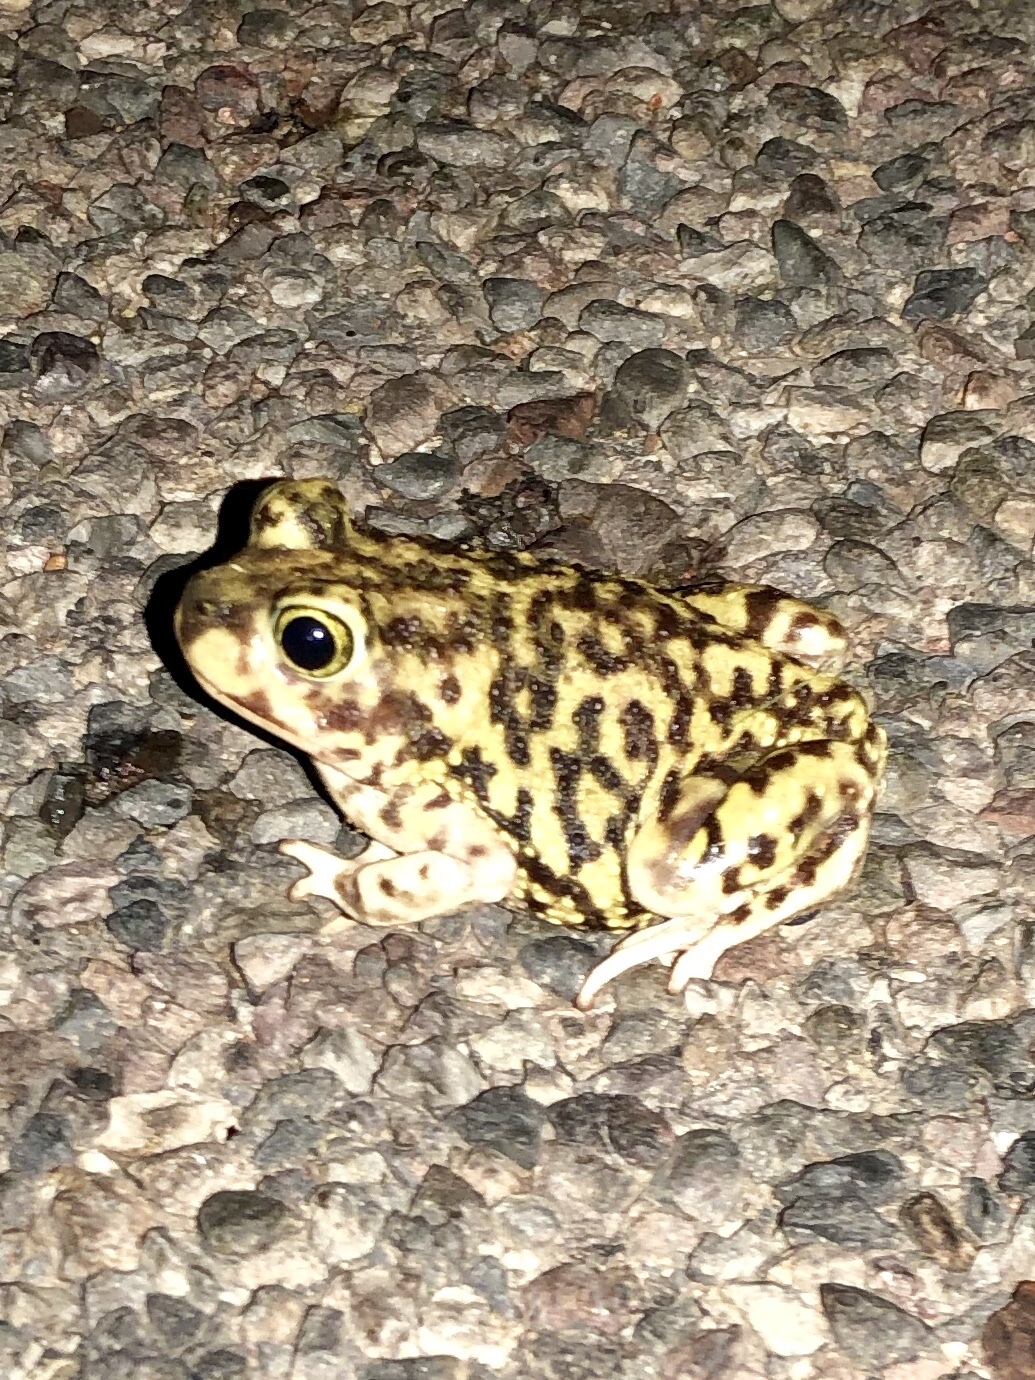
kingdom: Animalia
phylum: Chordata
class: Amphibia
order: Anura
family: Scaphiopodidae
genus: Scaphiopus
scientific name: Scaphiopus couchii
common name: Couch's spadefoot toad
